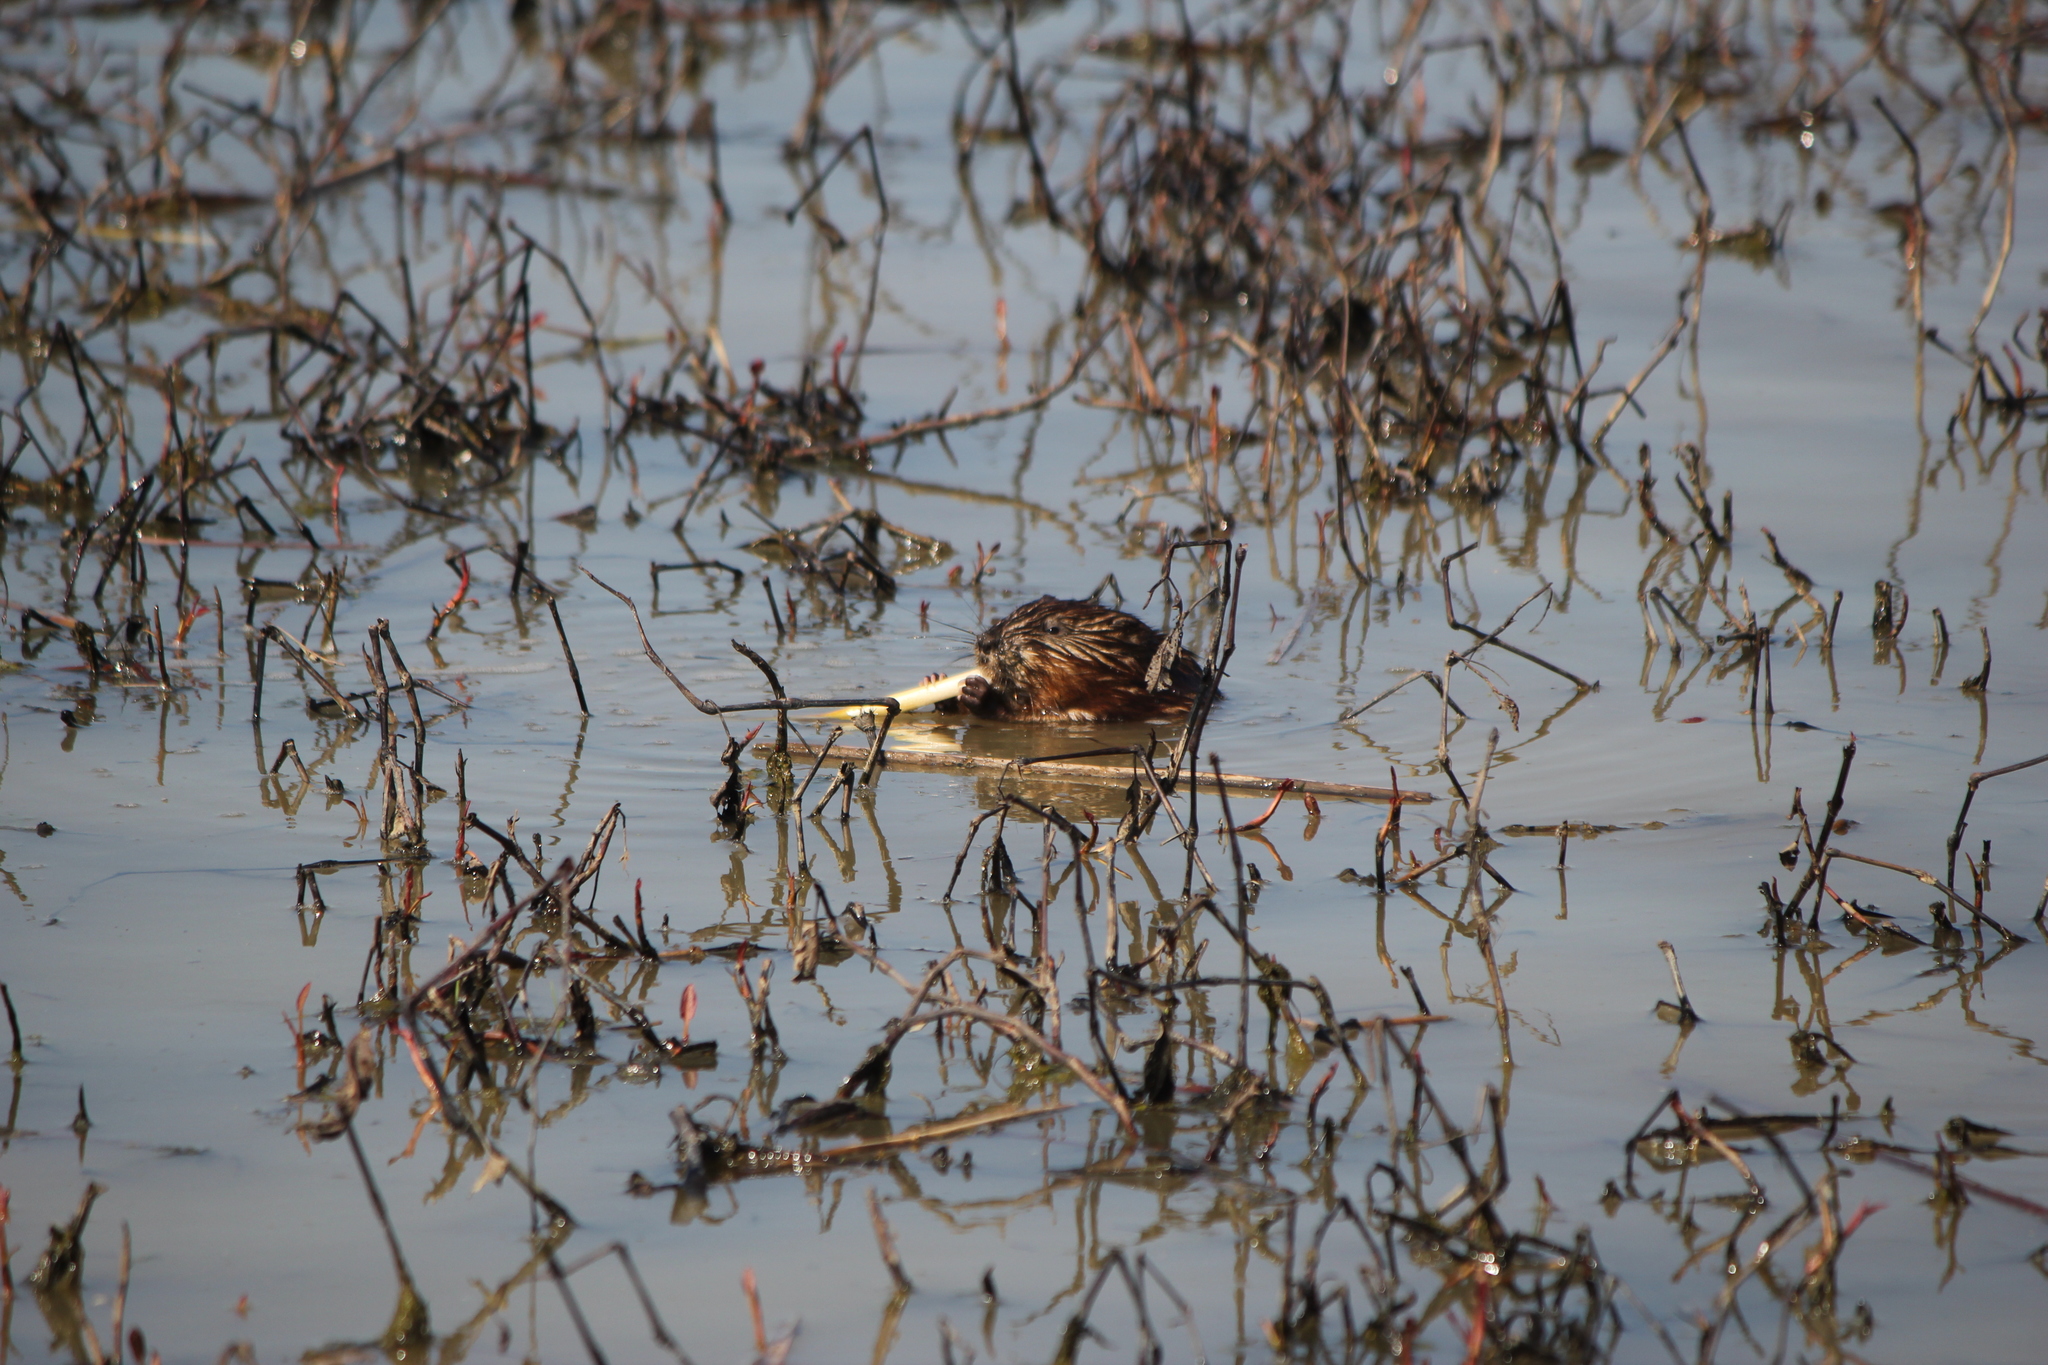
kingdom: Animalia
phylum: Chordata
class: Mammalia
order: Rodentia
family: Cricetidae
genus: Ondatra
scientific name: Ondatra zibethicus
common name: Muskrat
